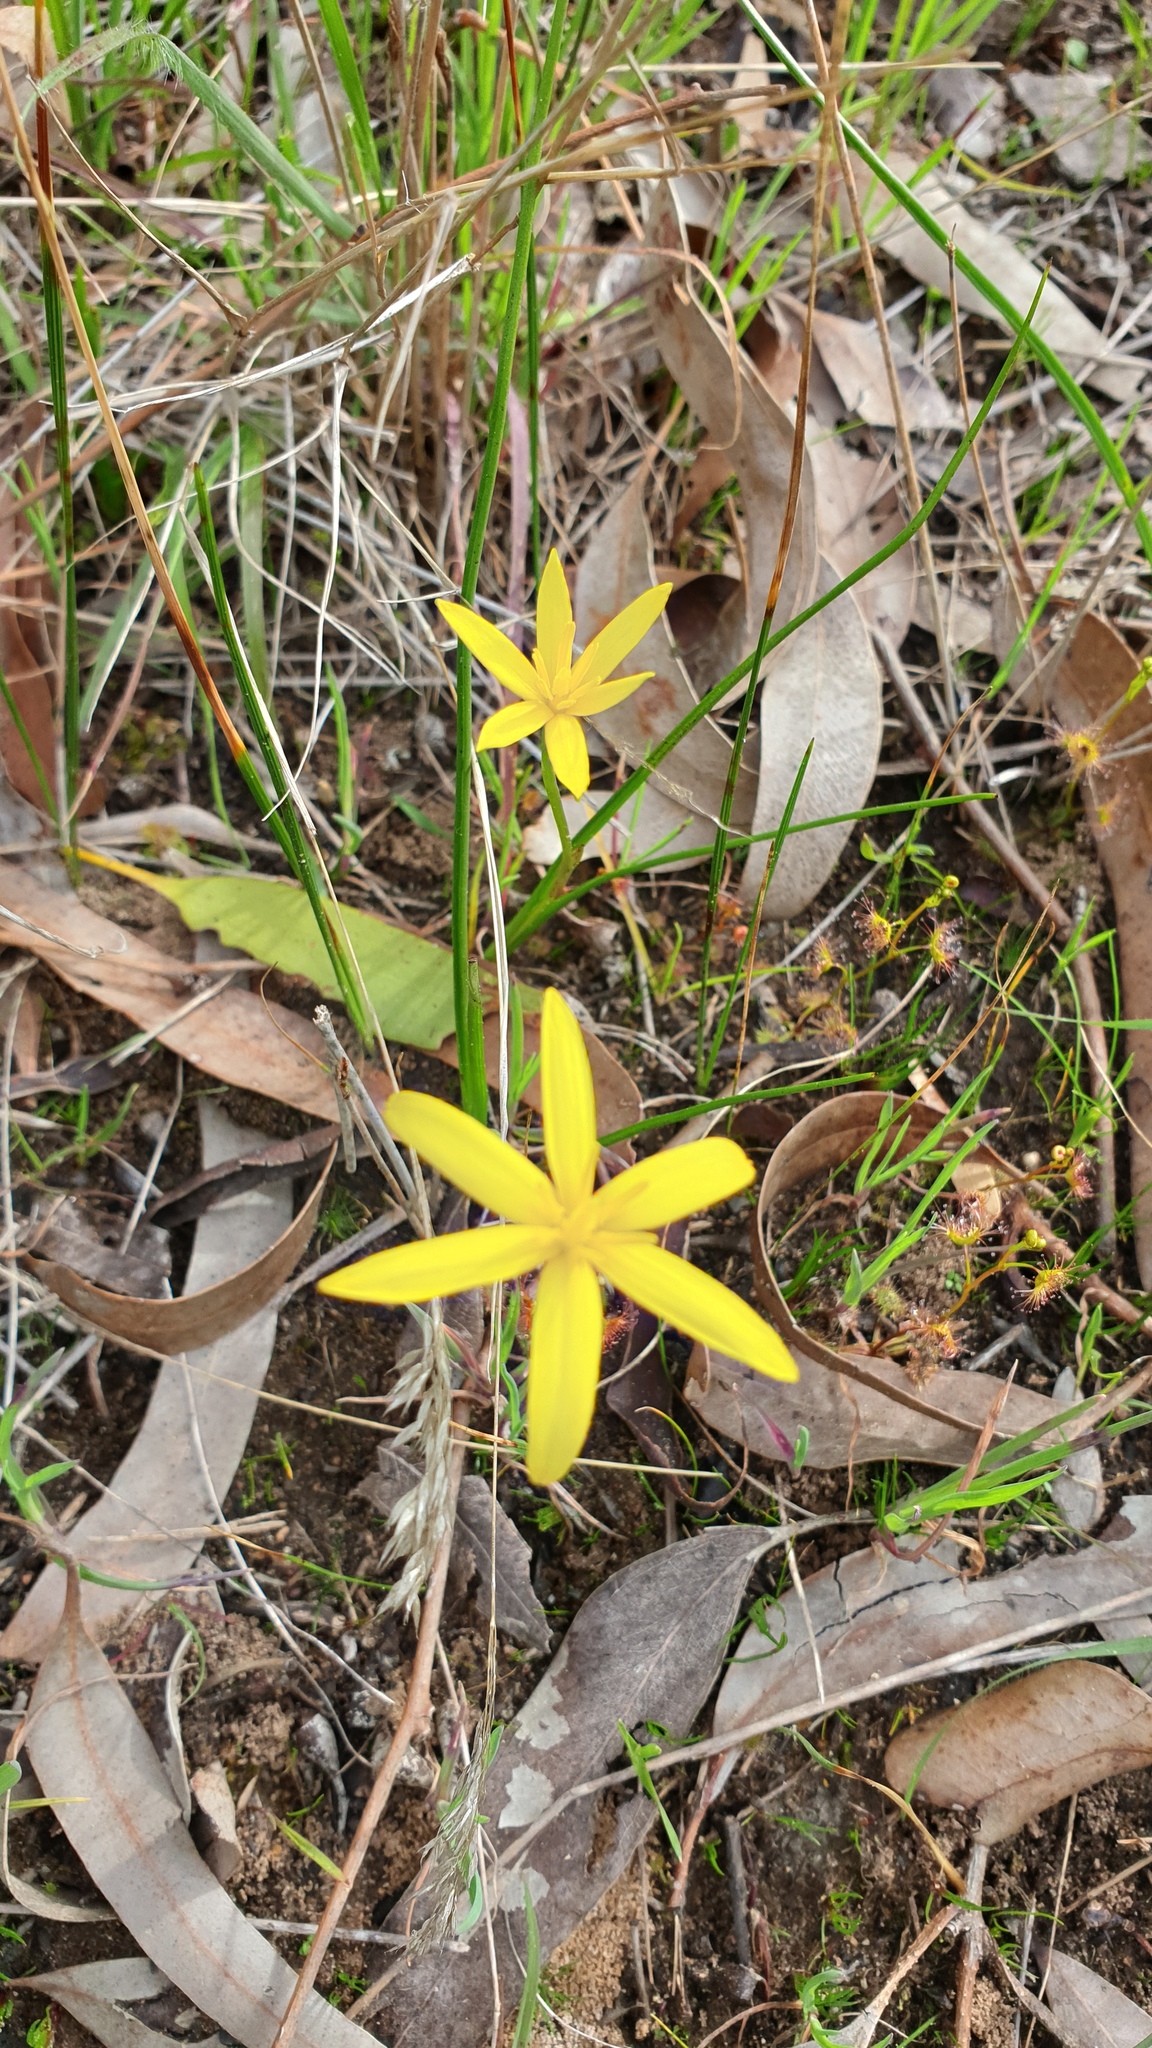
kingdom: Plantae
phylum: Tracheophyta
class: Liliopsida
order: Asparagales
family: Hypoxidaceae
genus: Pauridia
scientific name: Pauridia vaginata
